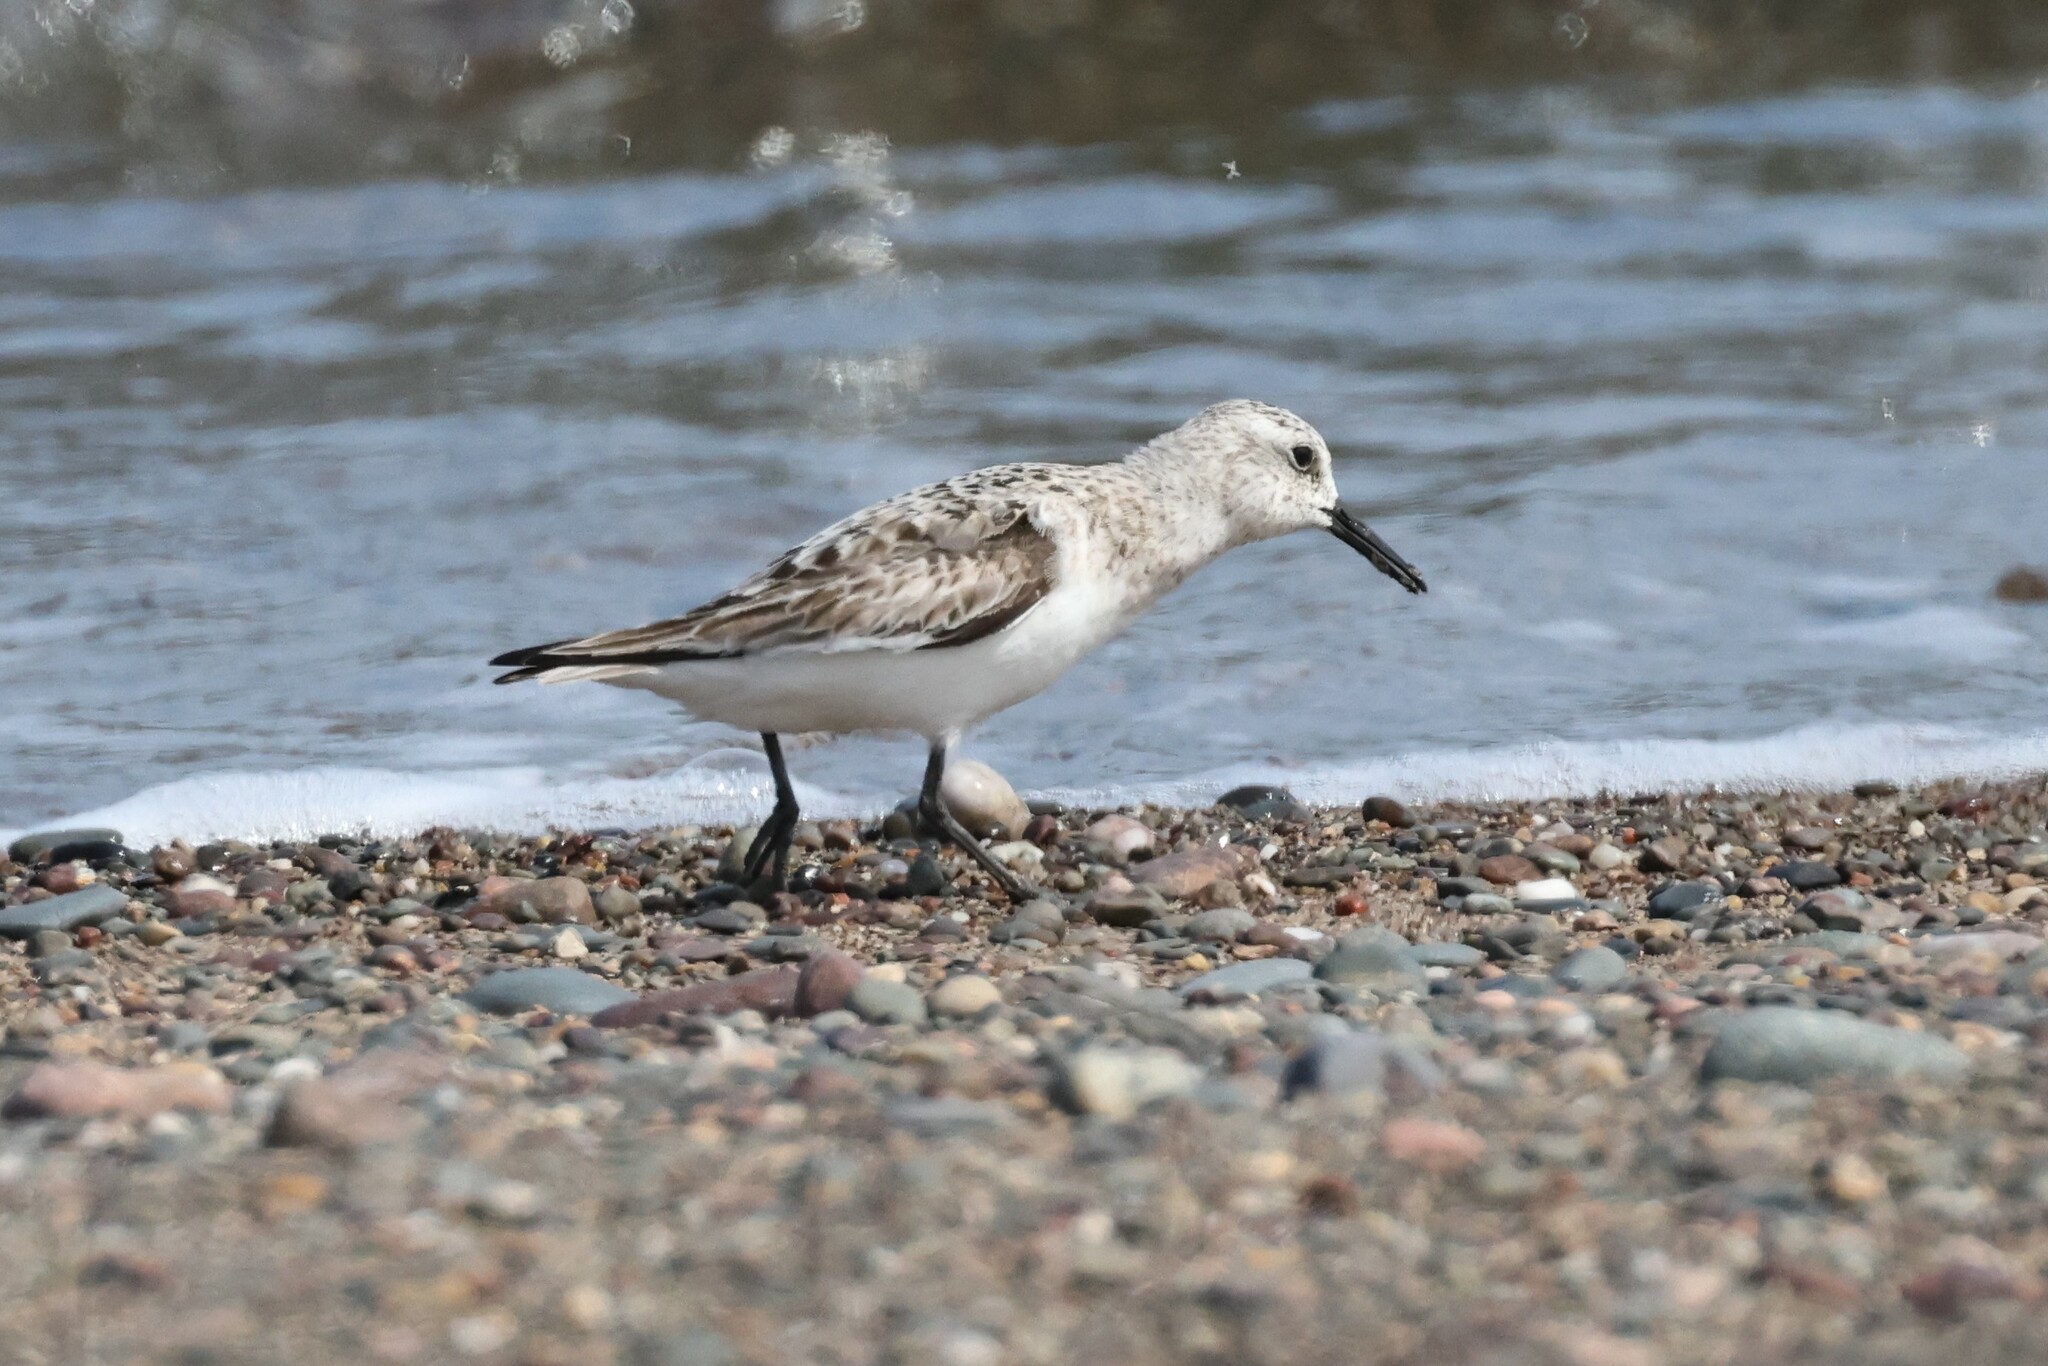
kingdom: Animalia
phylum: Chordata
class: Aves
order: Charadriiformes
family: Scolopacidae
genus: Calidris
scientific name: Calidris alba
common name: Sanderling
